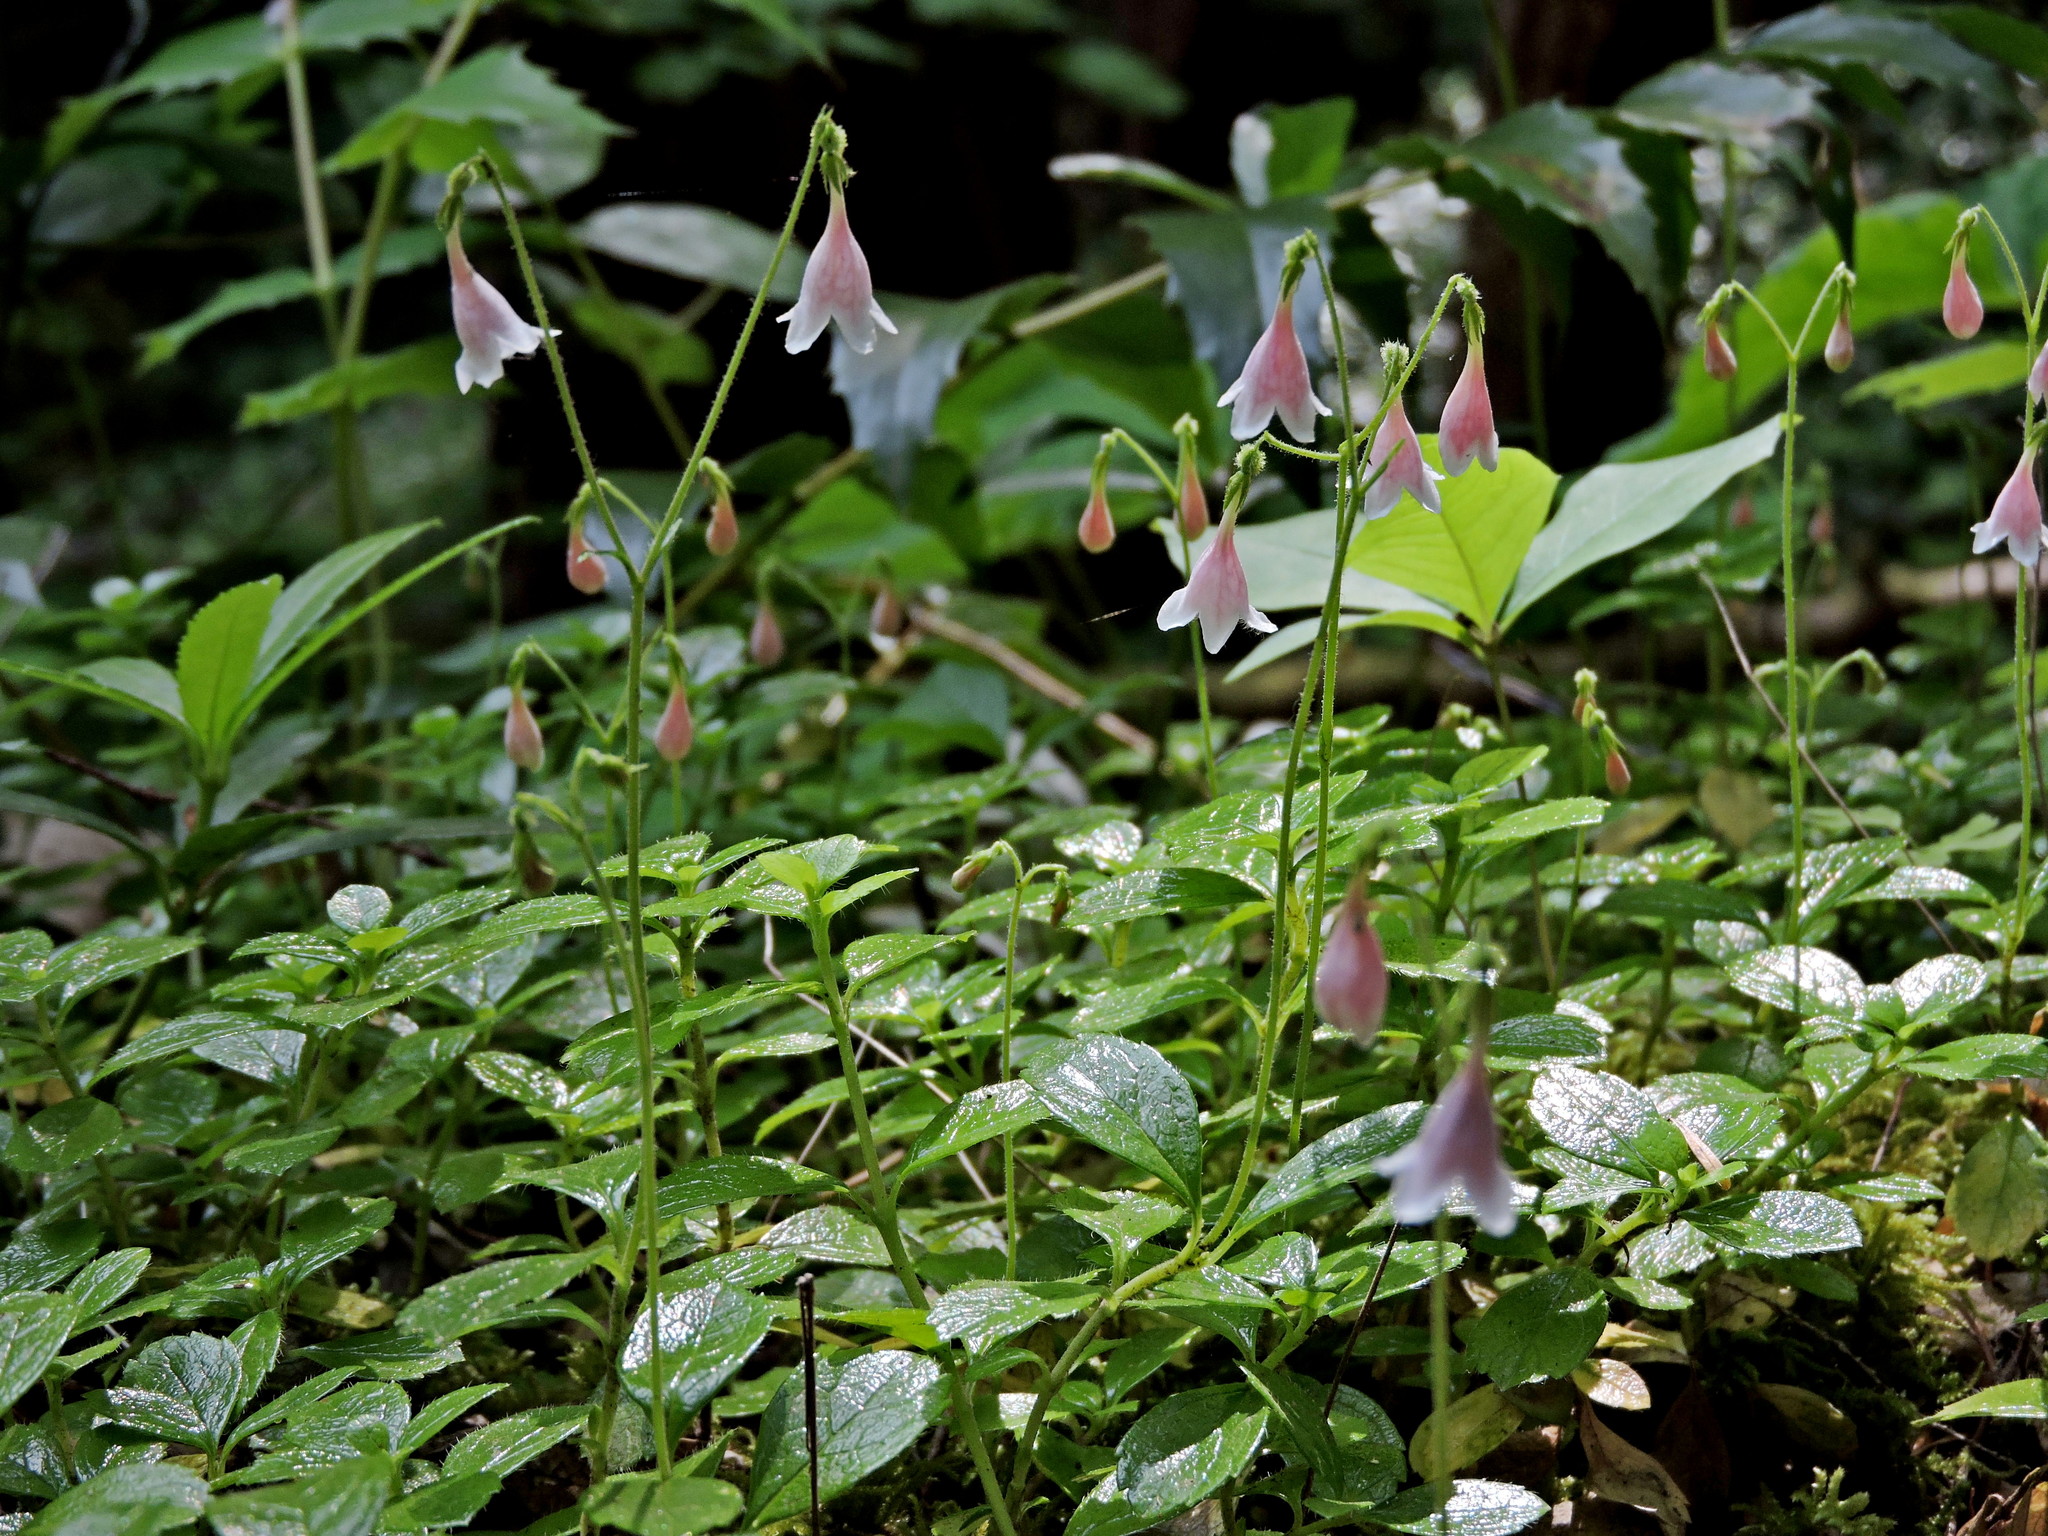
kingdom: Plantae
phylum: Tracheophyta
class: Magnoliopsida
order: Dipsacales
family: Caprifoliaceae
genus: Linnaea
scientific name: Linnaea borealis
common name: Twinflower
